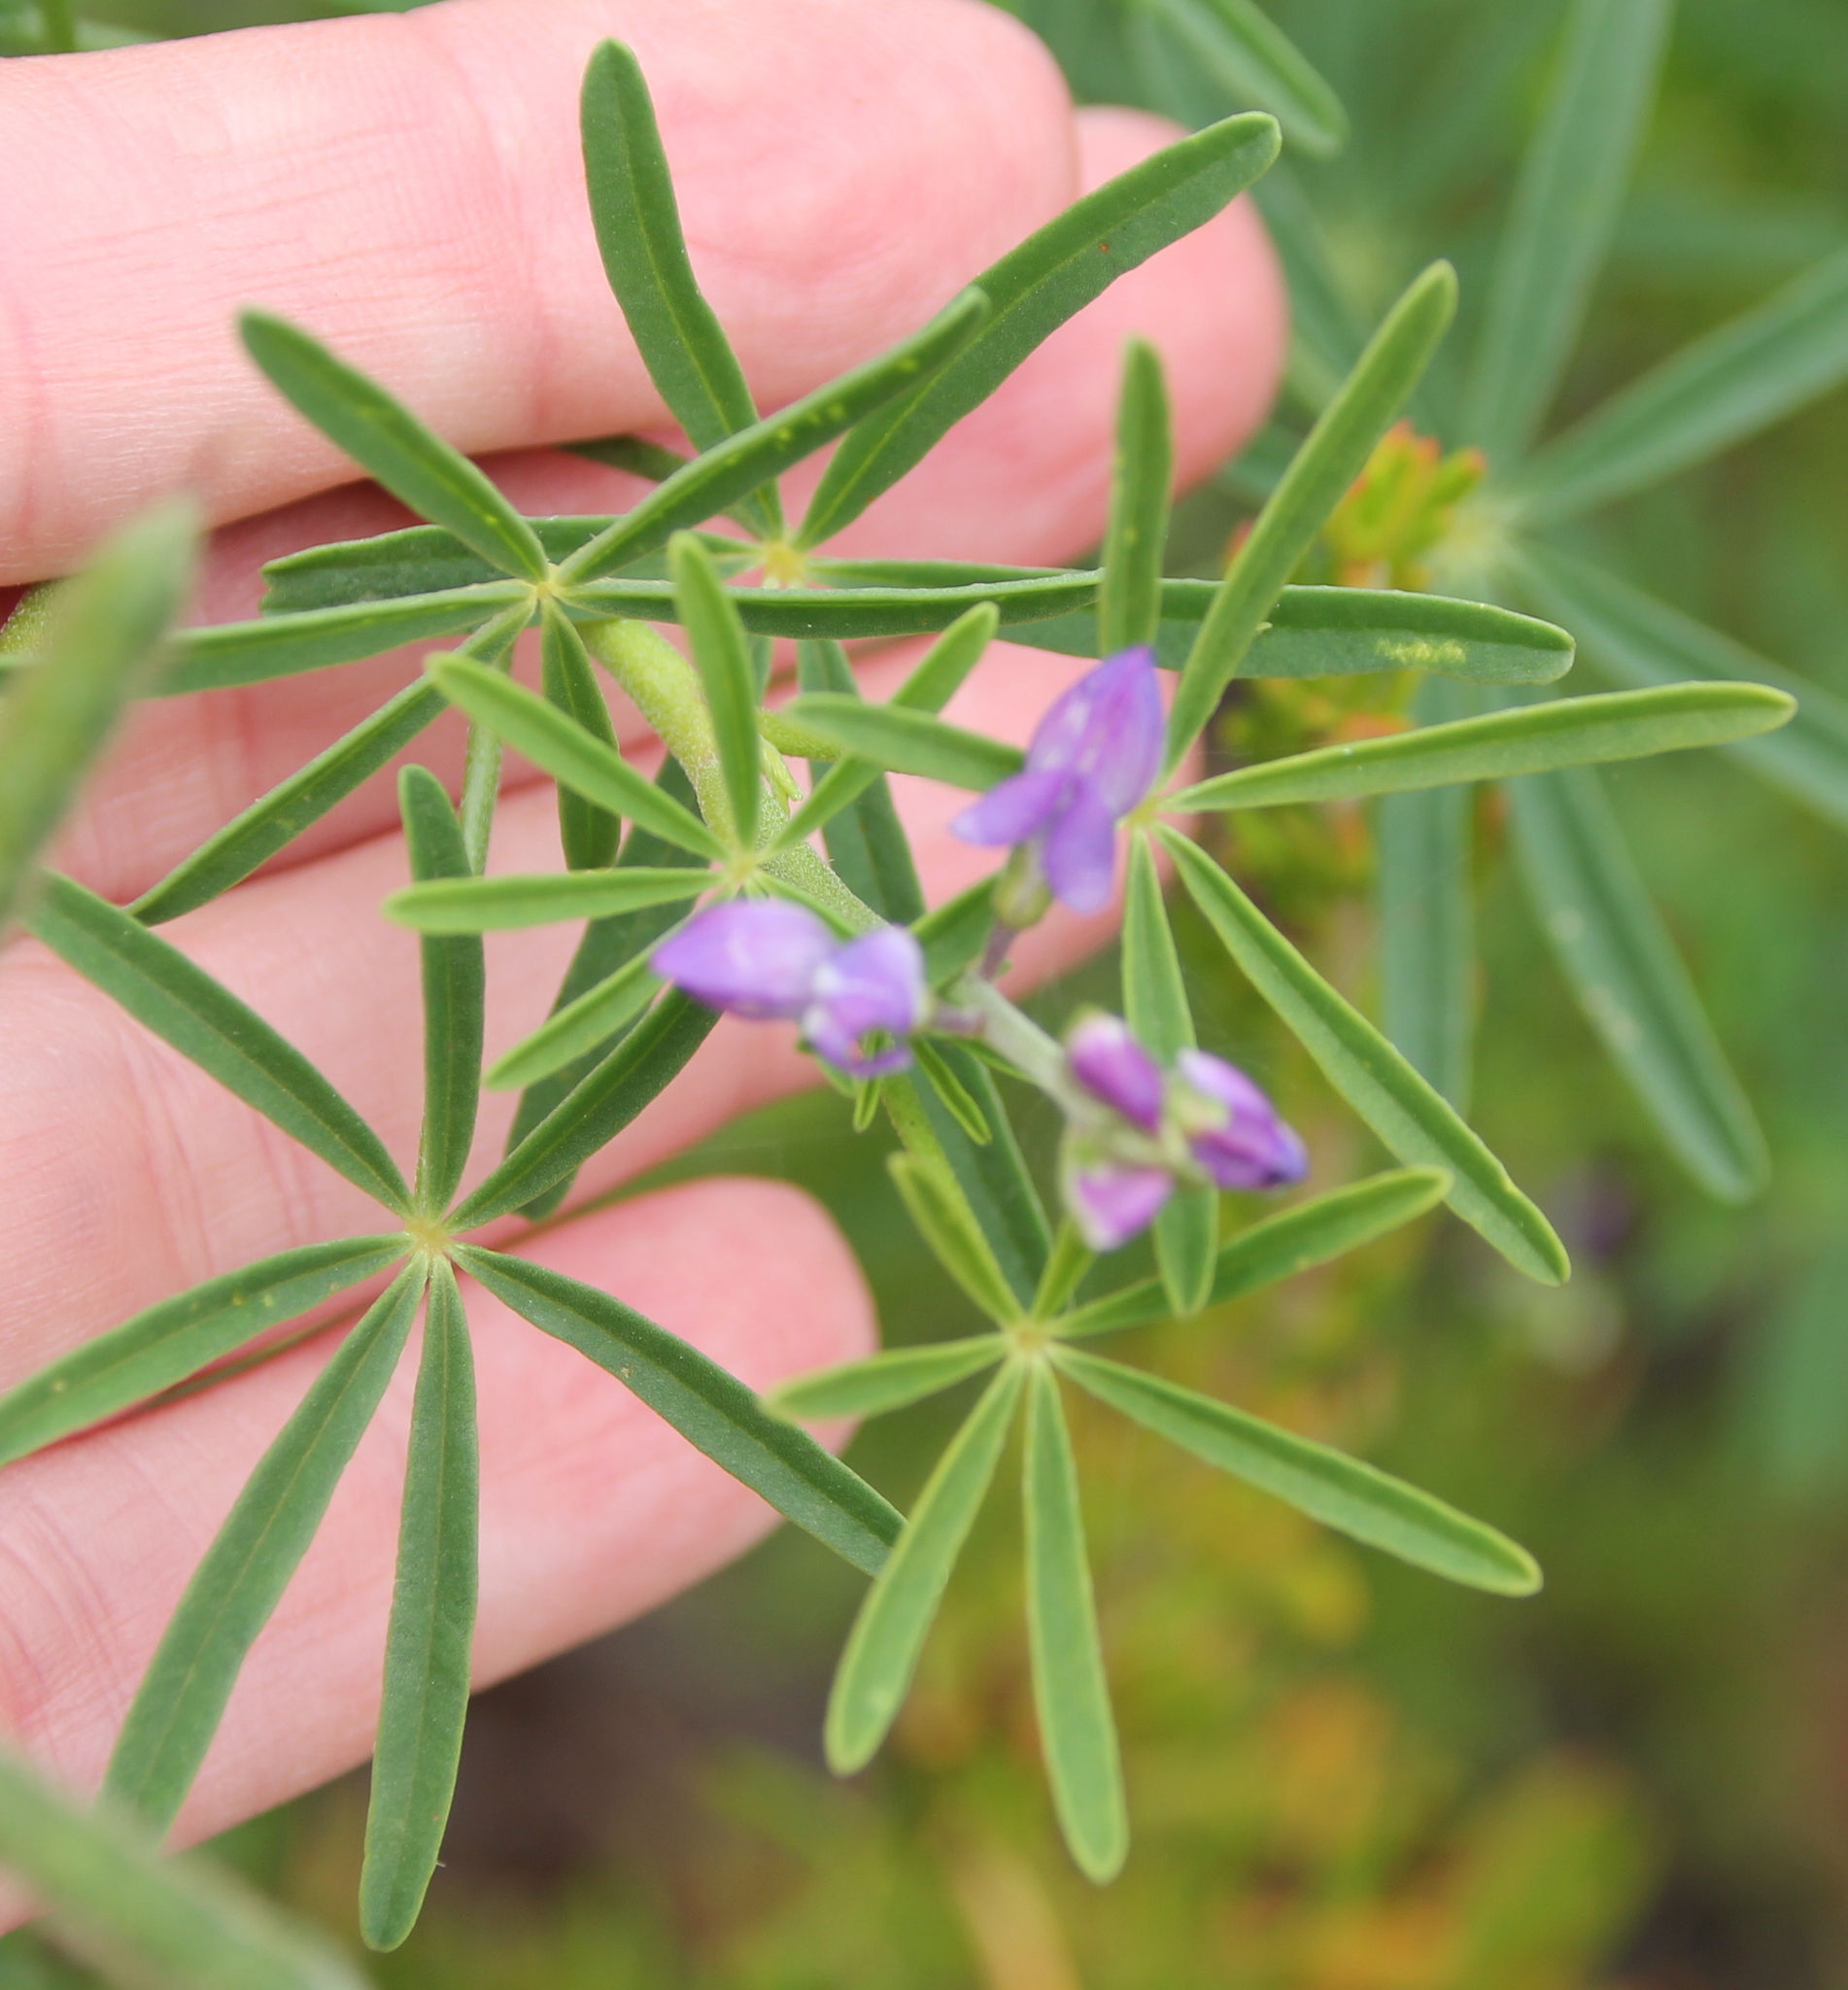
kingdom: Plantae
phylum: Tracheophyta
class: Magnoliopsida
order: Fabales
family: Fabaceae
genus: Lupinus
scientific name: Lupinus truncatus
